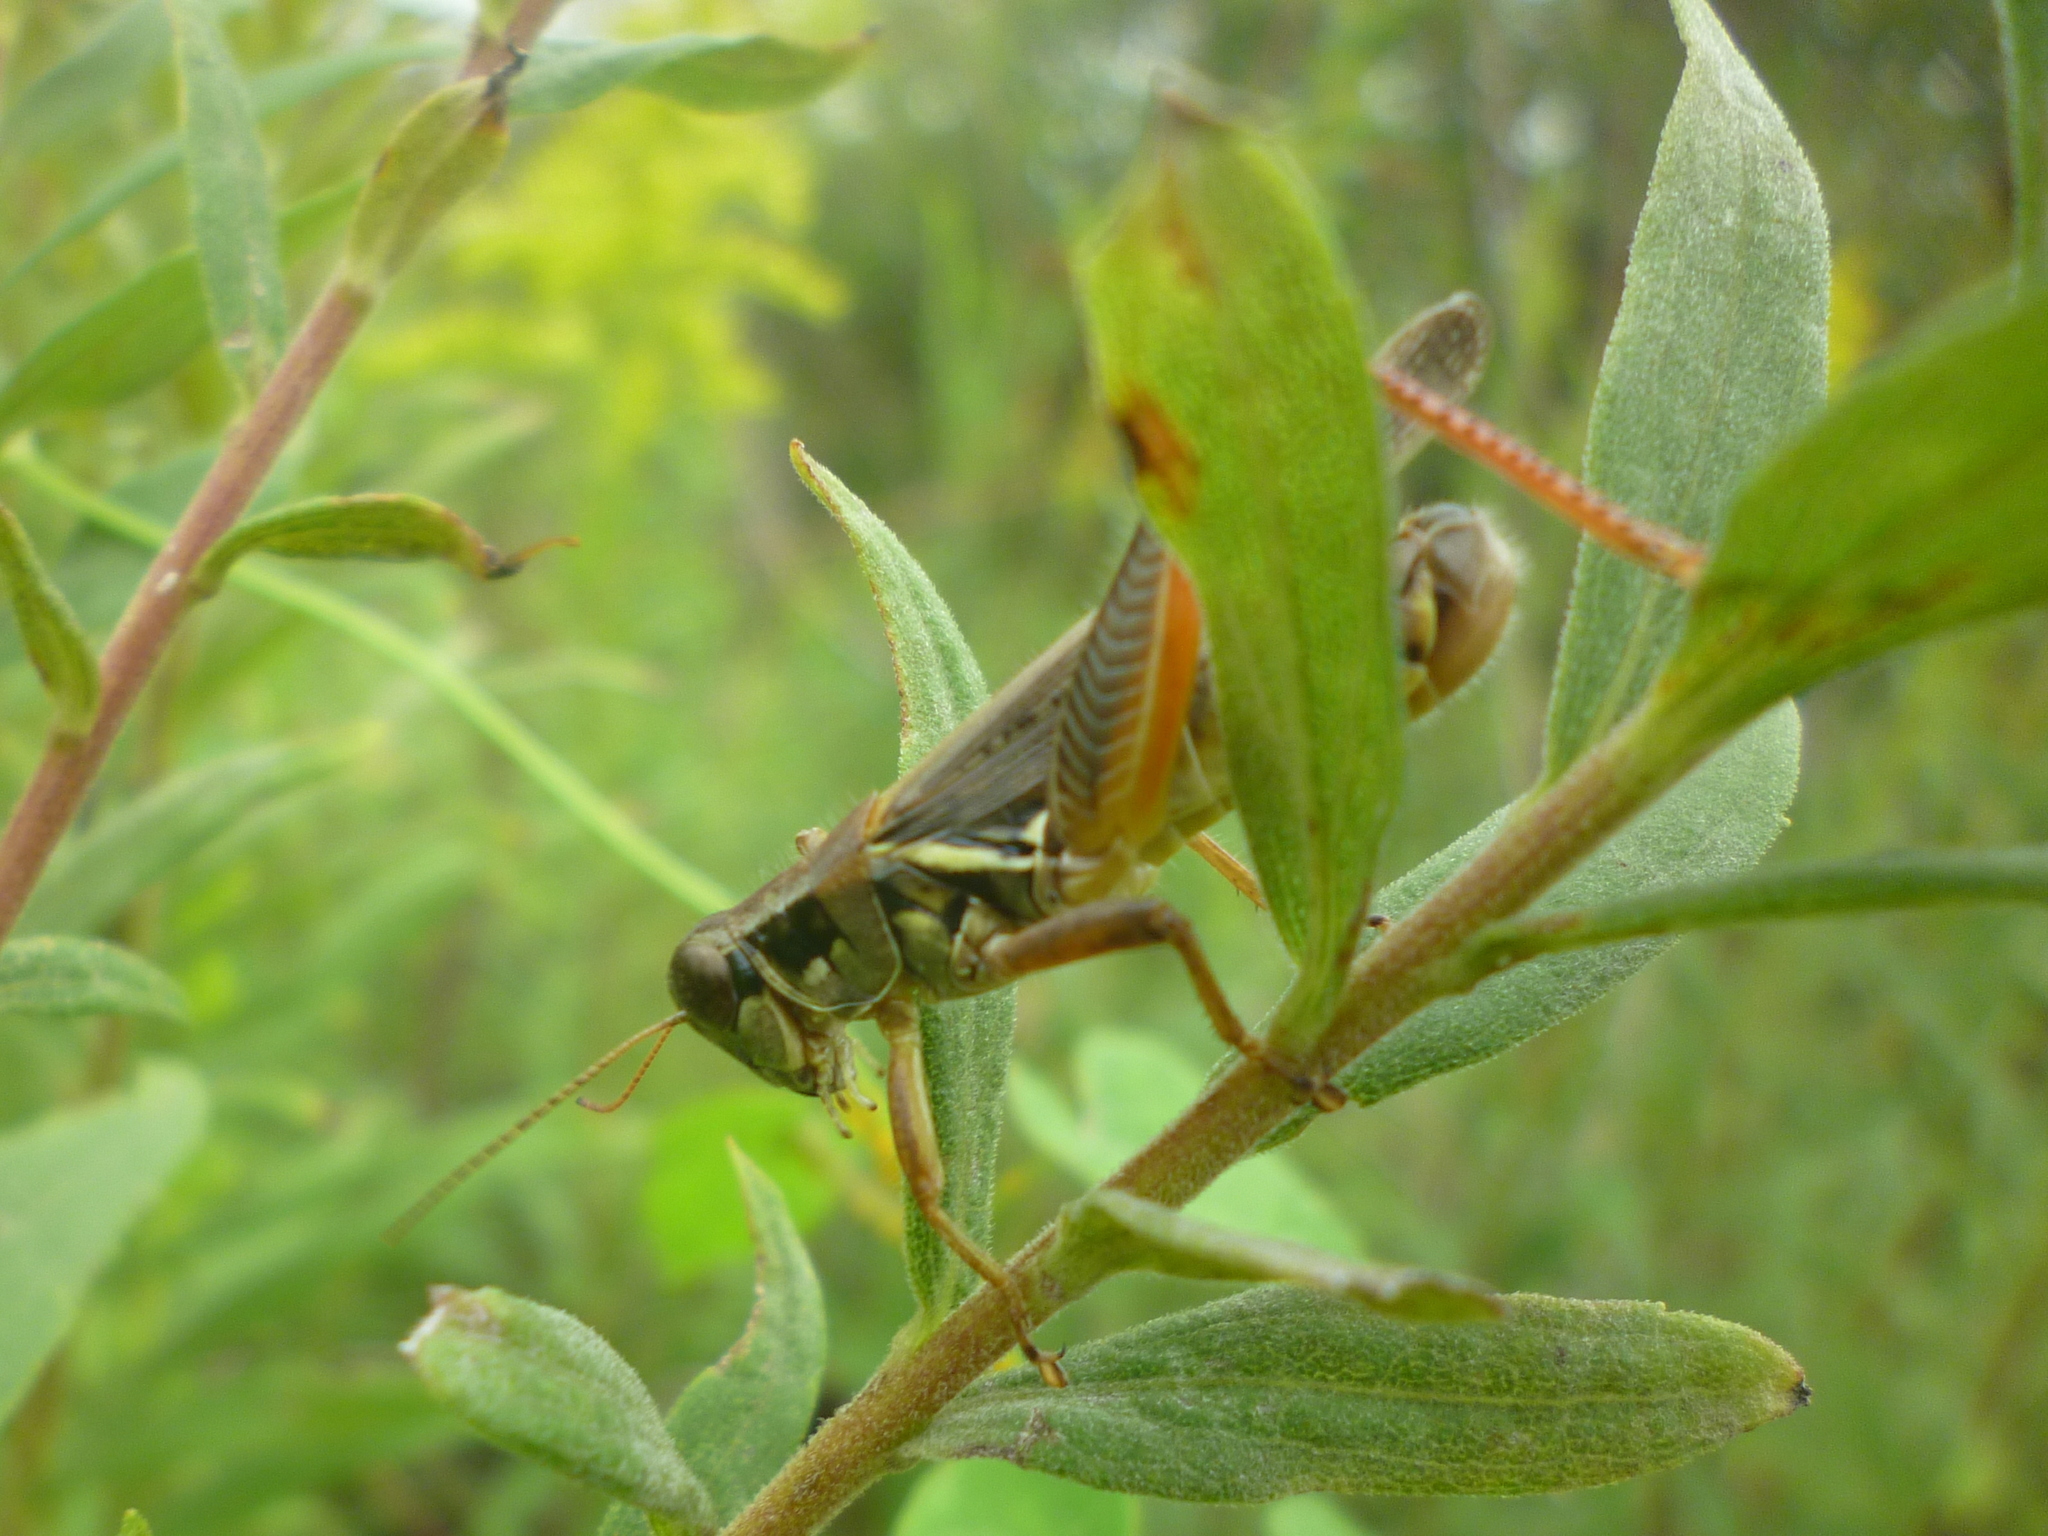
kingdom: Animalia
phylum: Arthropoda
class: Insecta
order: Orthoptera
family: Acrididae
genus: Melanoplus
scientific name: Melanoplus femurrubrum
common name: Red-legged grasshopper
